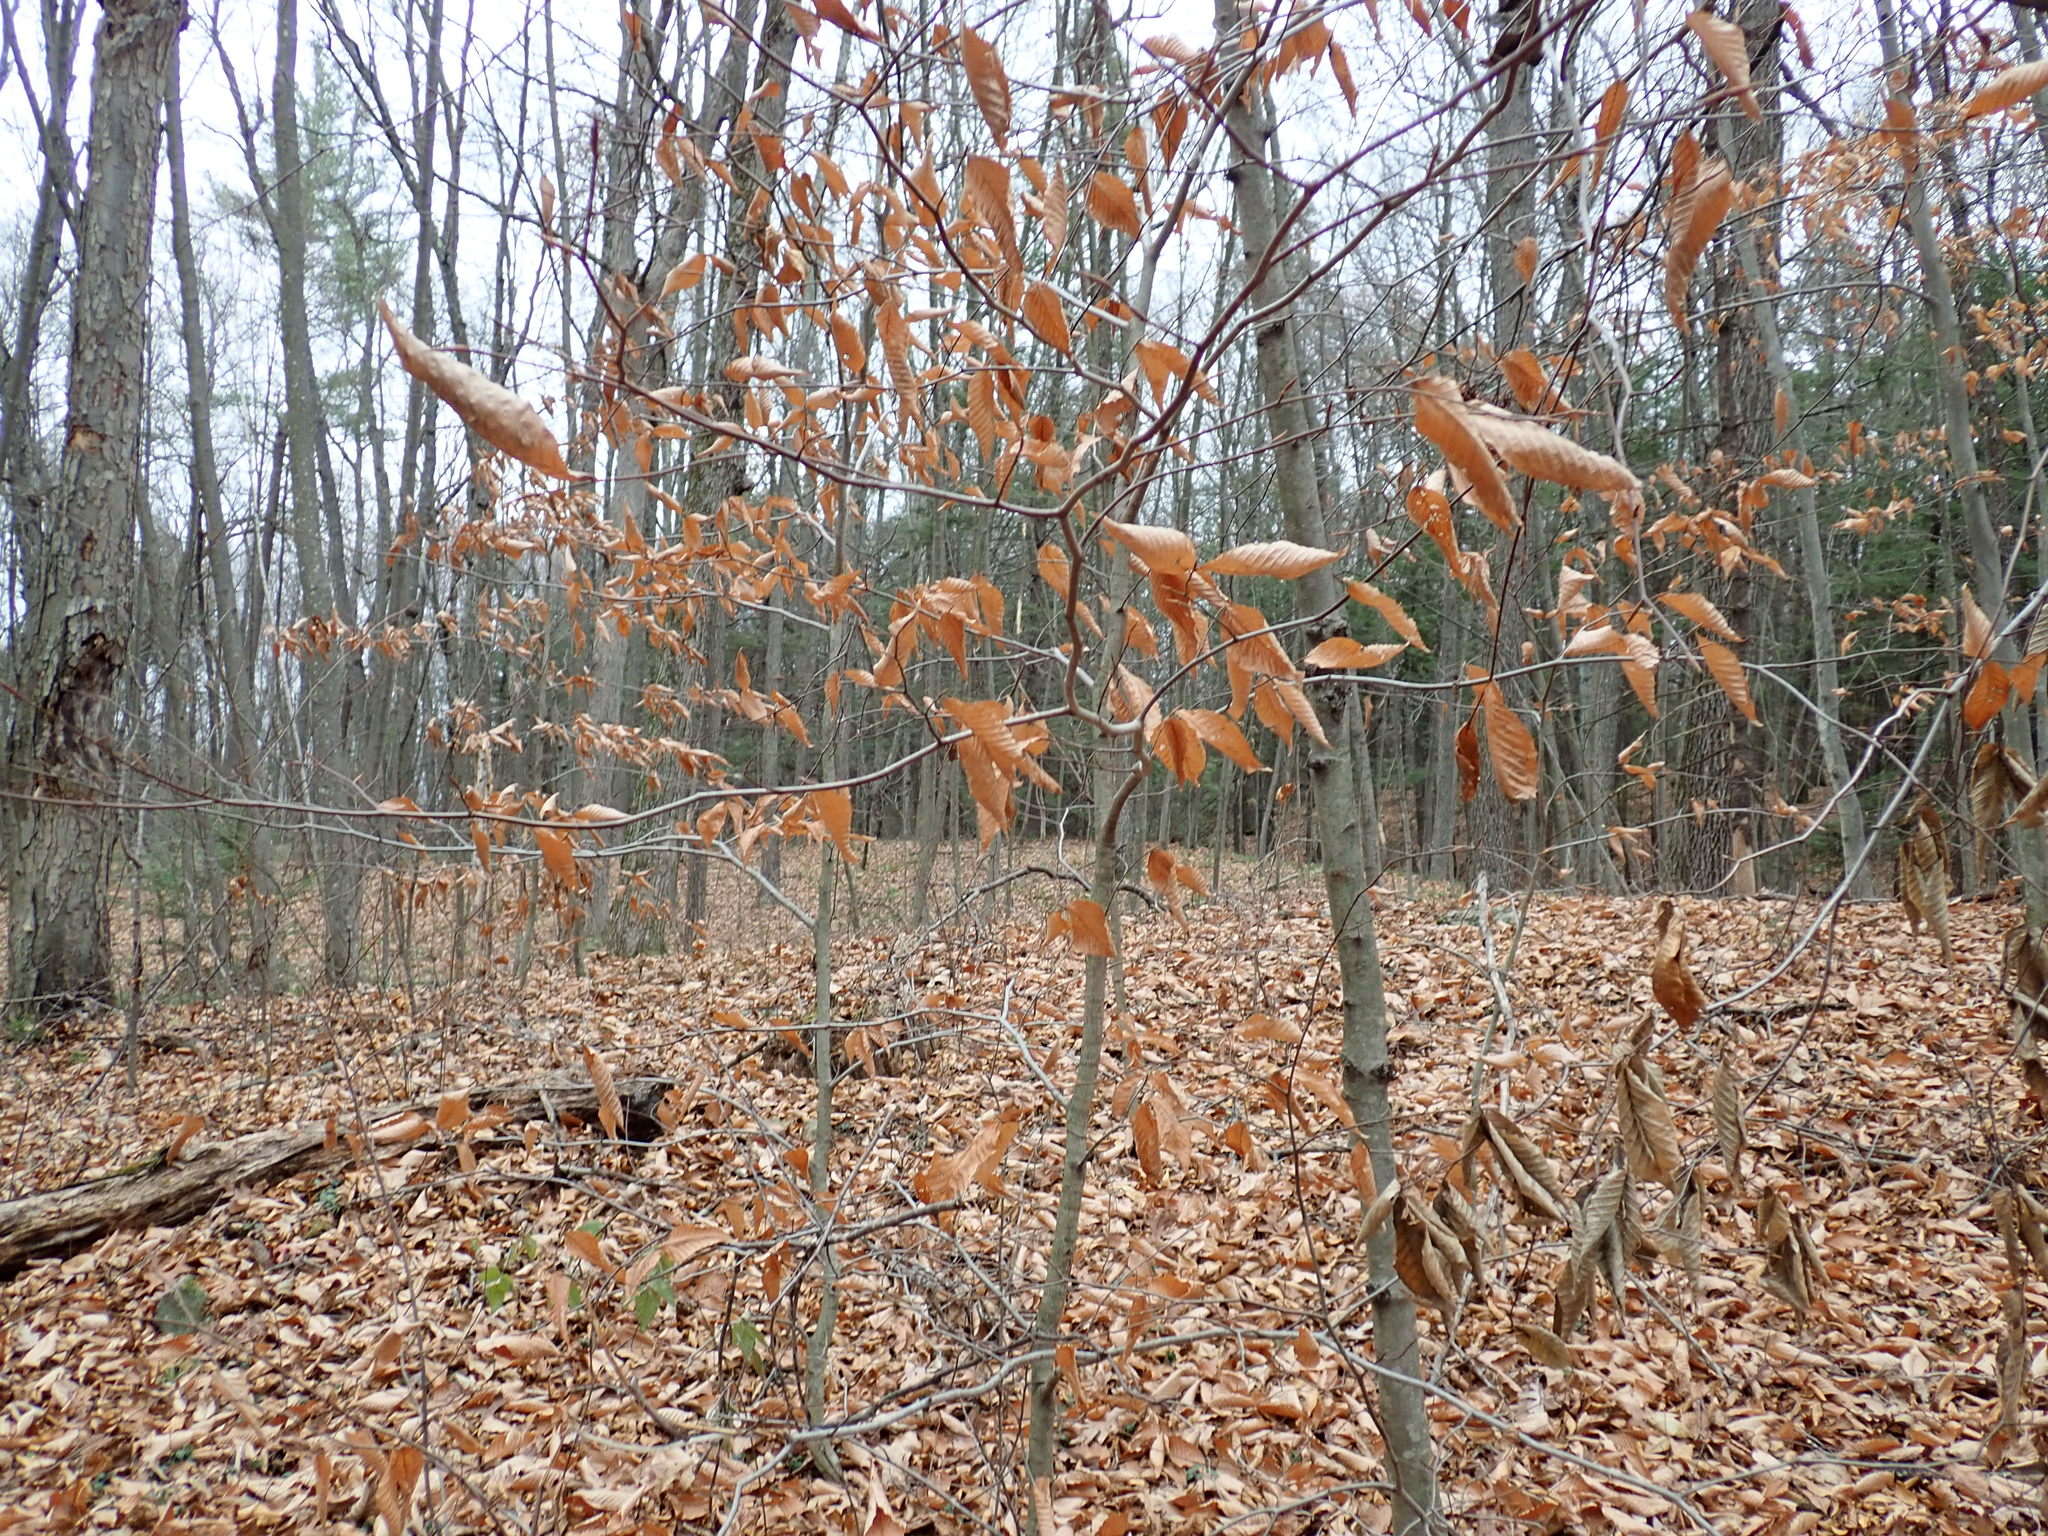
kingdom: Plantae
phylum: Tracheophyta
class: Magnoliopsida
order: Fagales
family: Fagaceae
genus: Fagus
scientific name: Fagus grandifolia
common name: American beech
